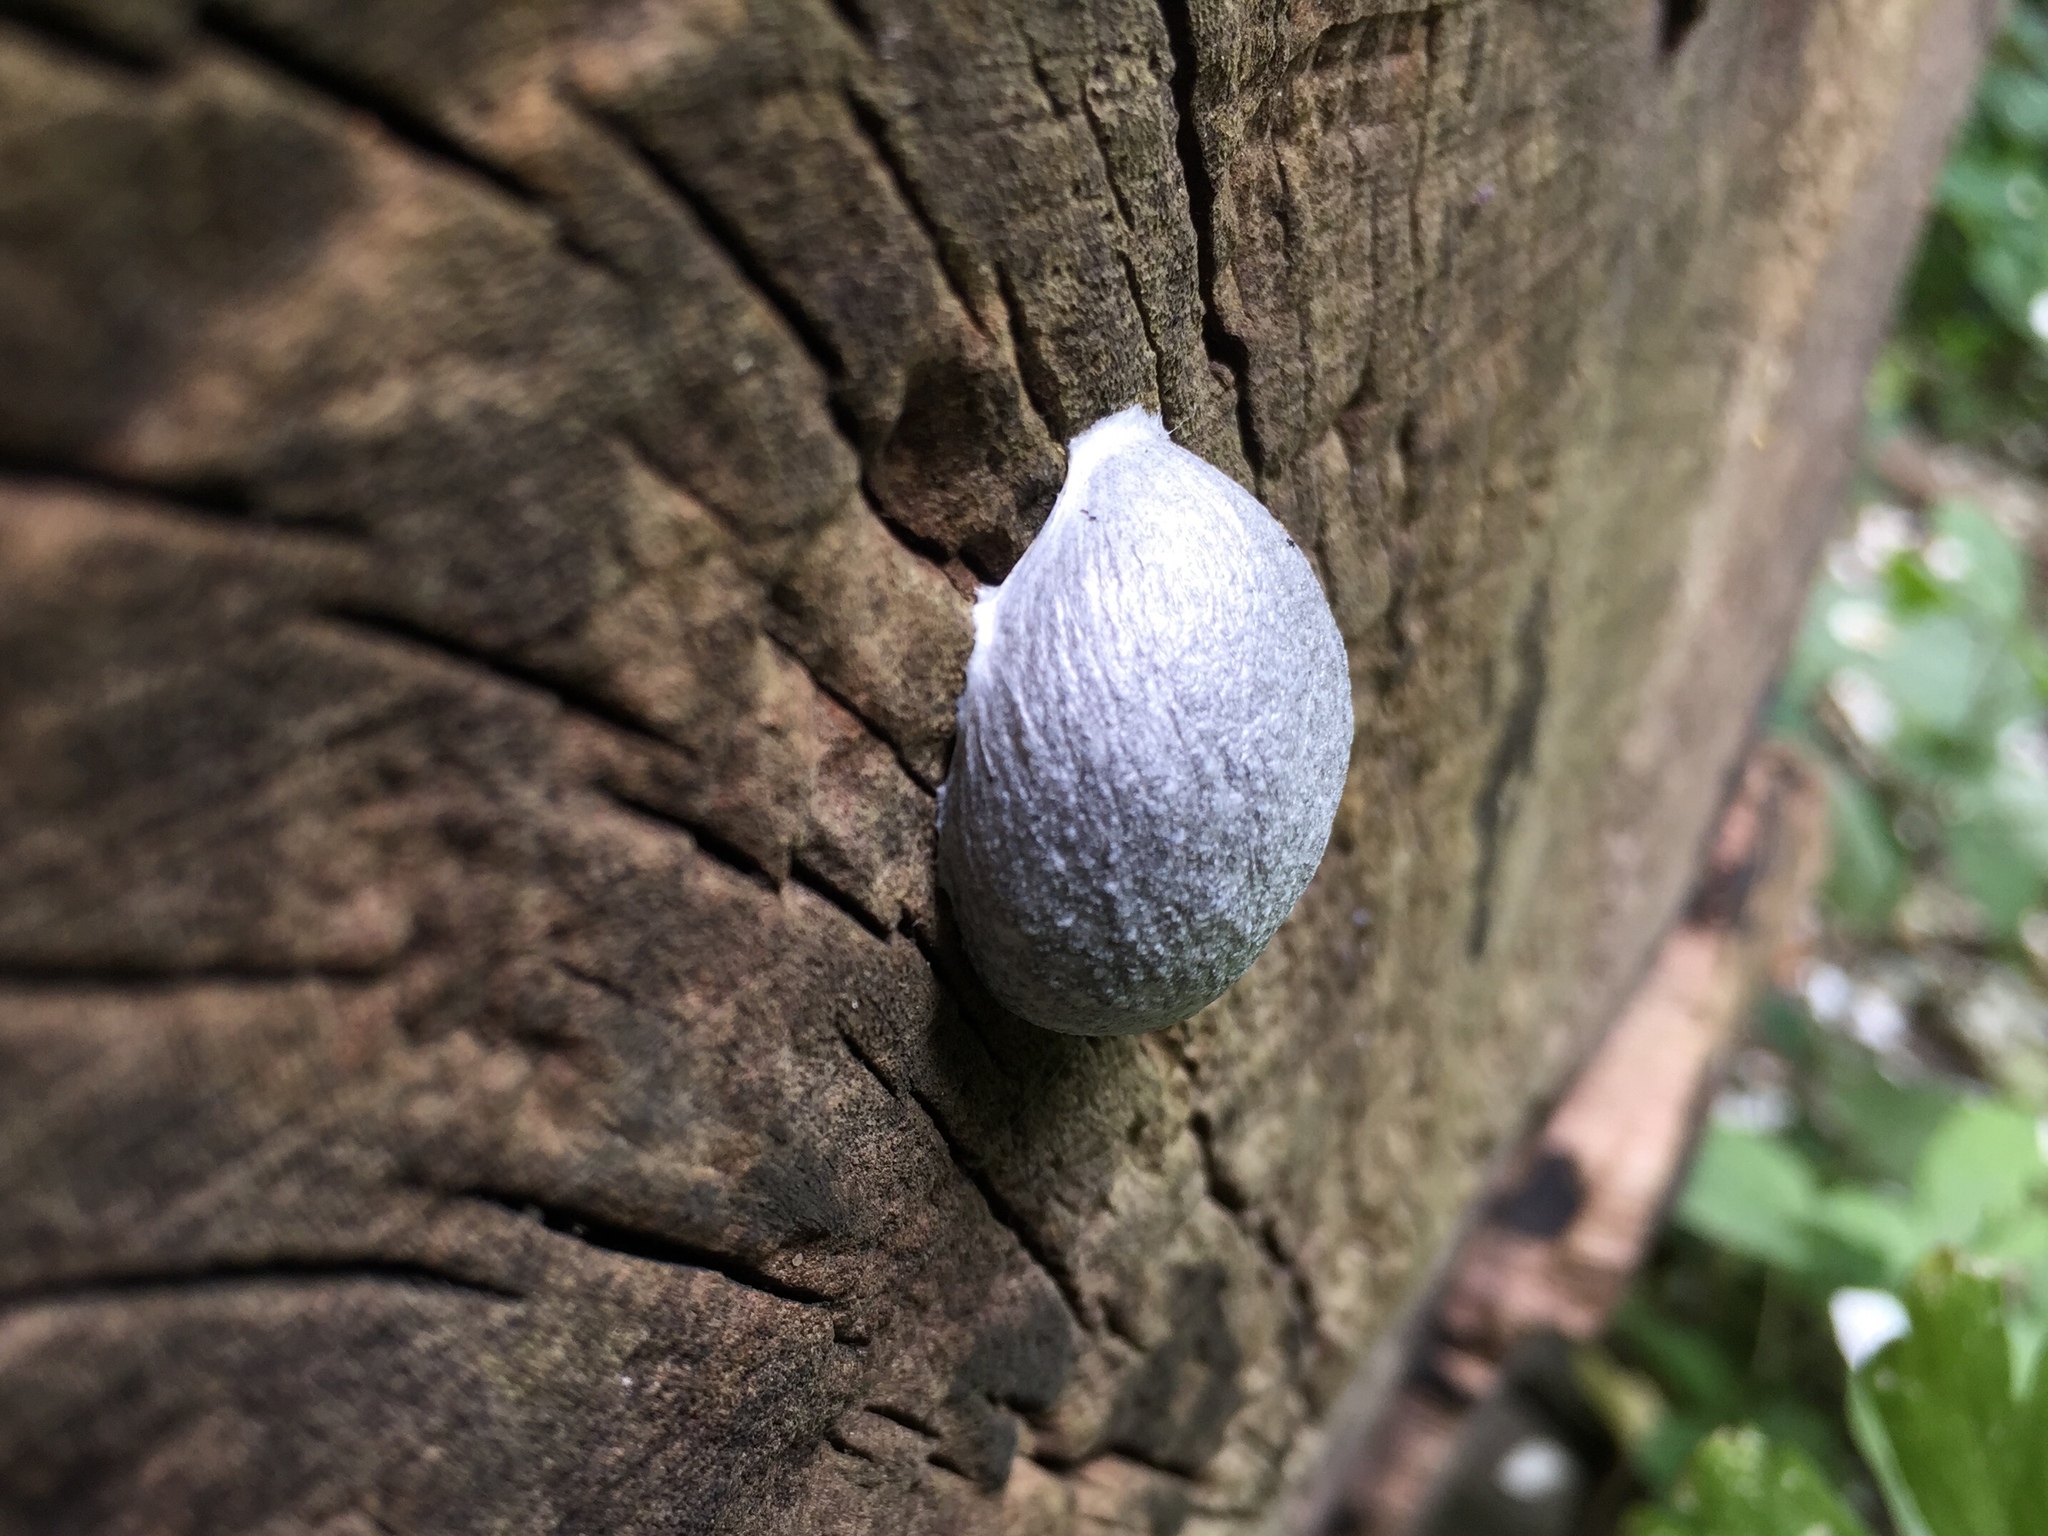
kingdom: Protozoa
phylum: Mycetozoa
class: Myxomycetes
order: Cribrariales
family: Tubiferaceae
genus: Reticularia
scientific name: Reticularia lycoperdon
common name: False puffball
